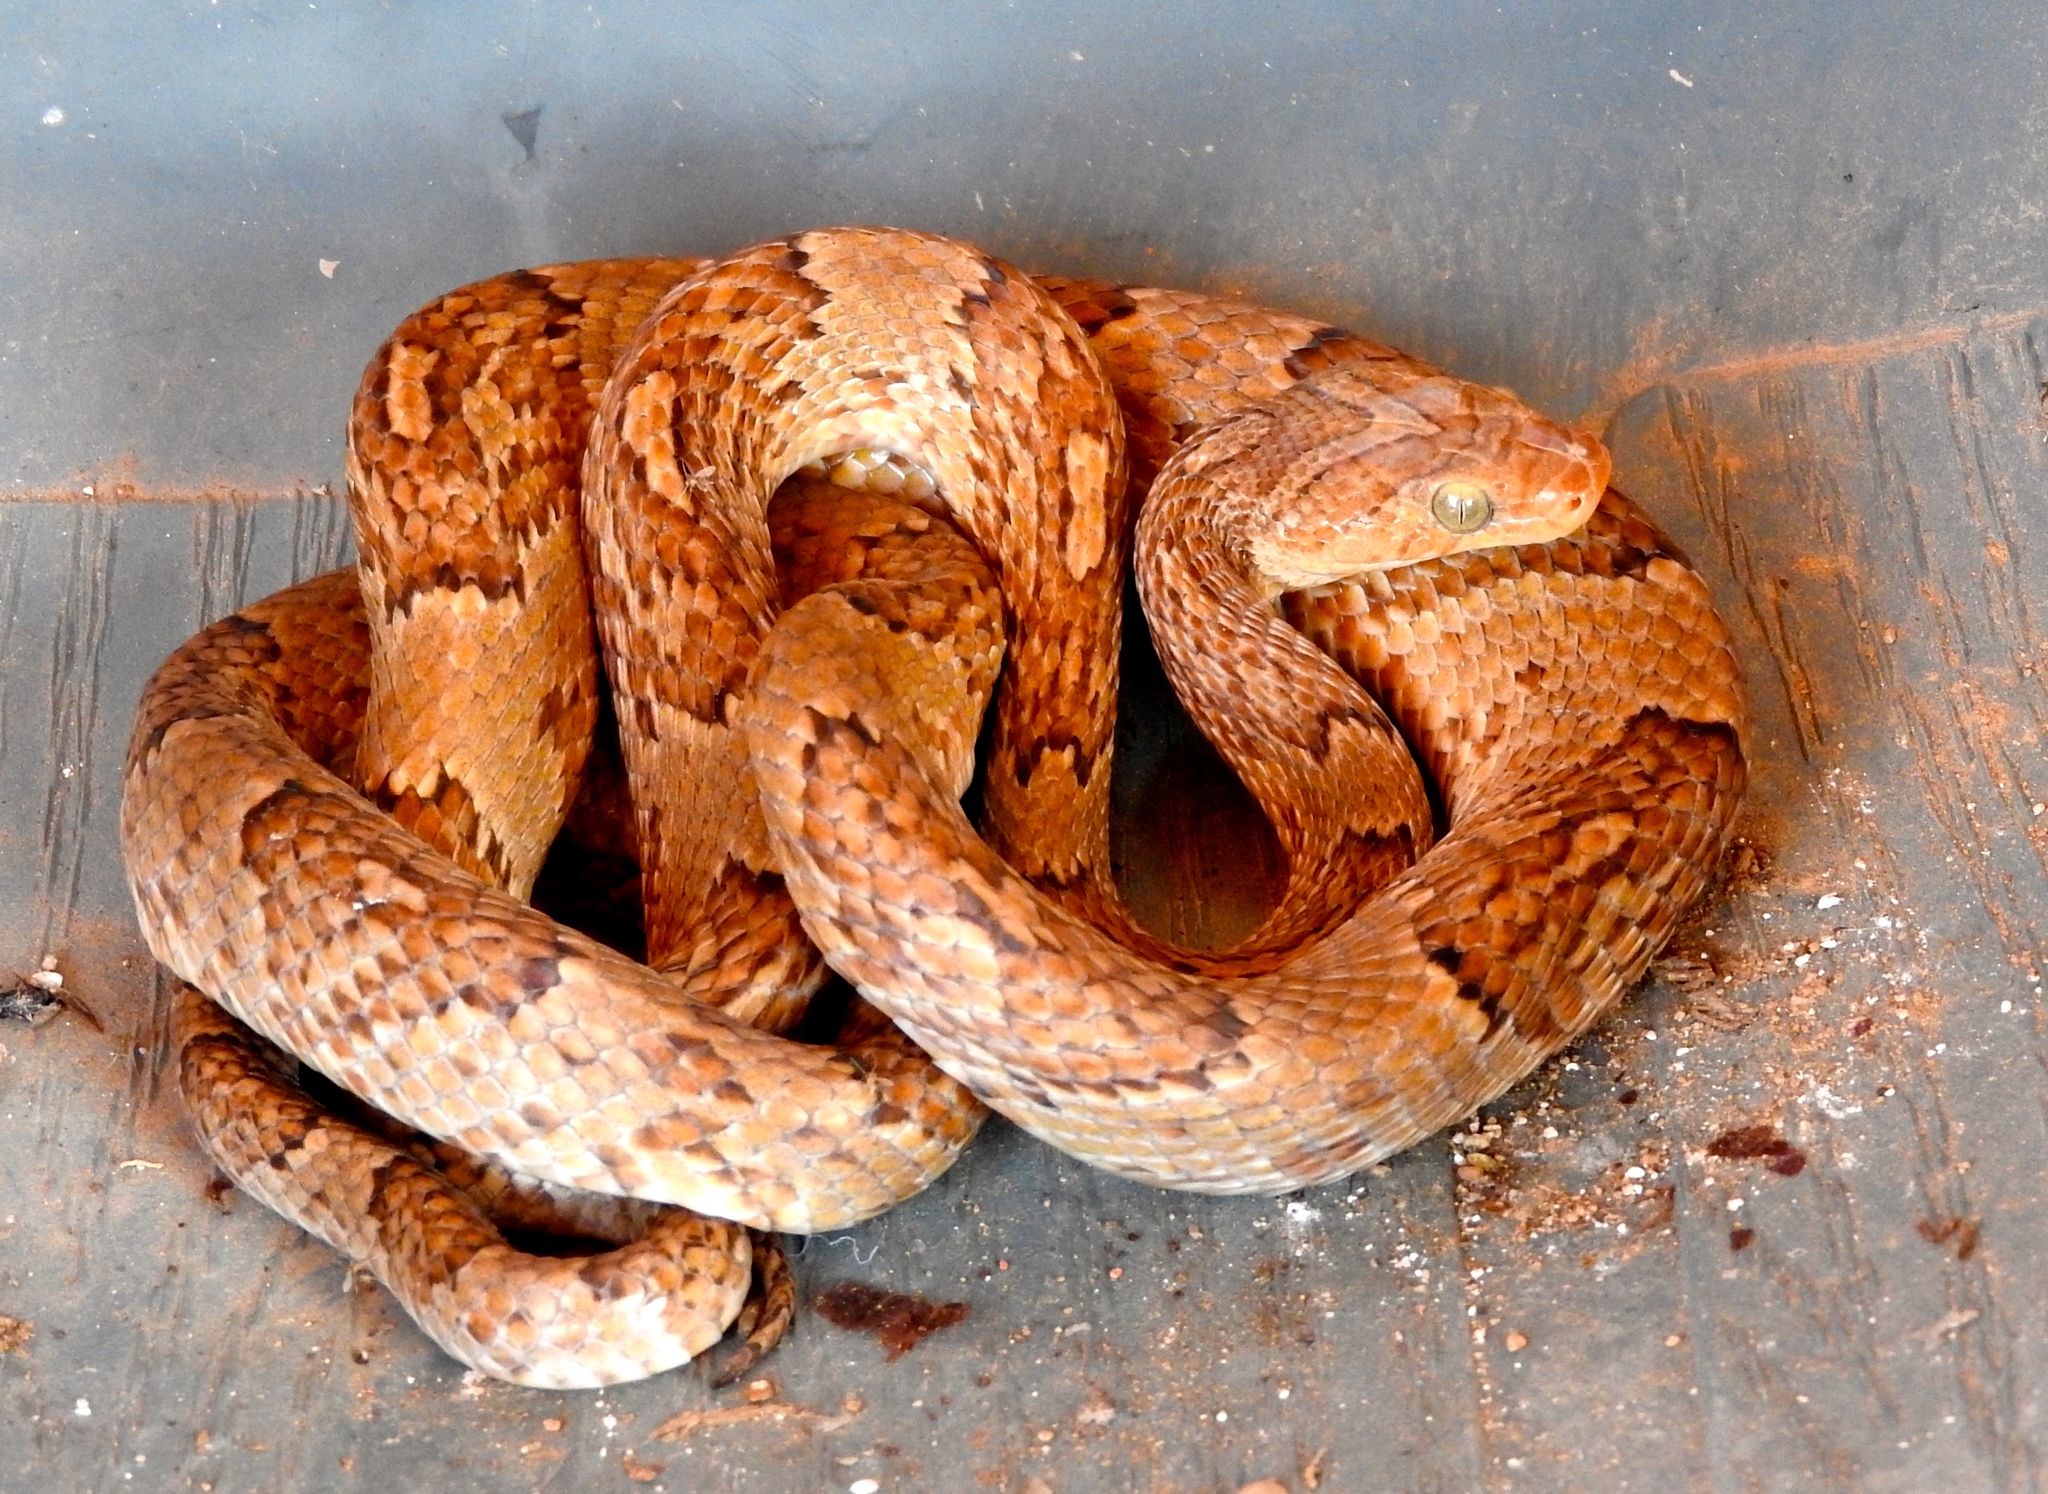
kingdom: Animalia
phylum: Chordata
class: Squamata
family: Colubridae
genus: Trimorphodon
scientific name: Trimorphodon paucimaculatus
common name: Sinaloan lyresnake
